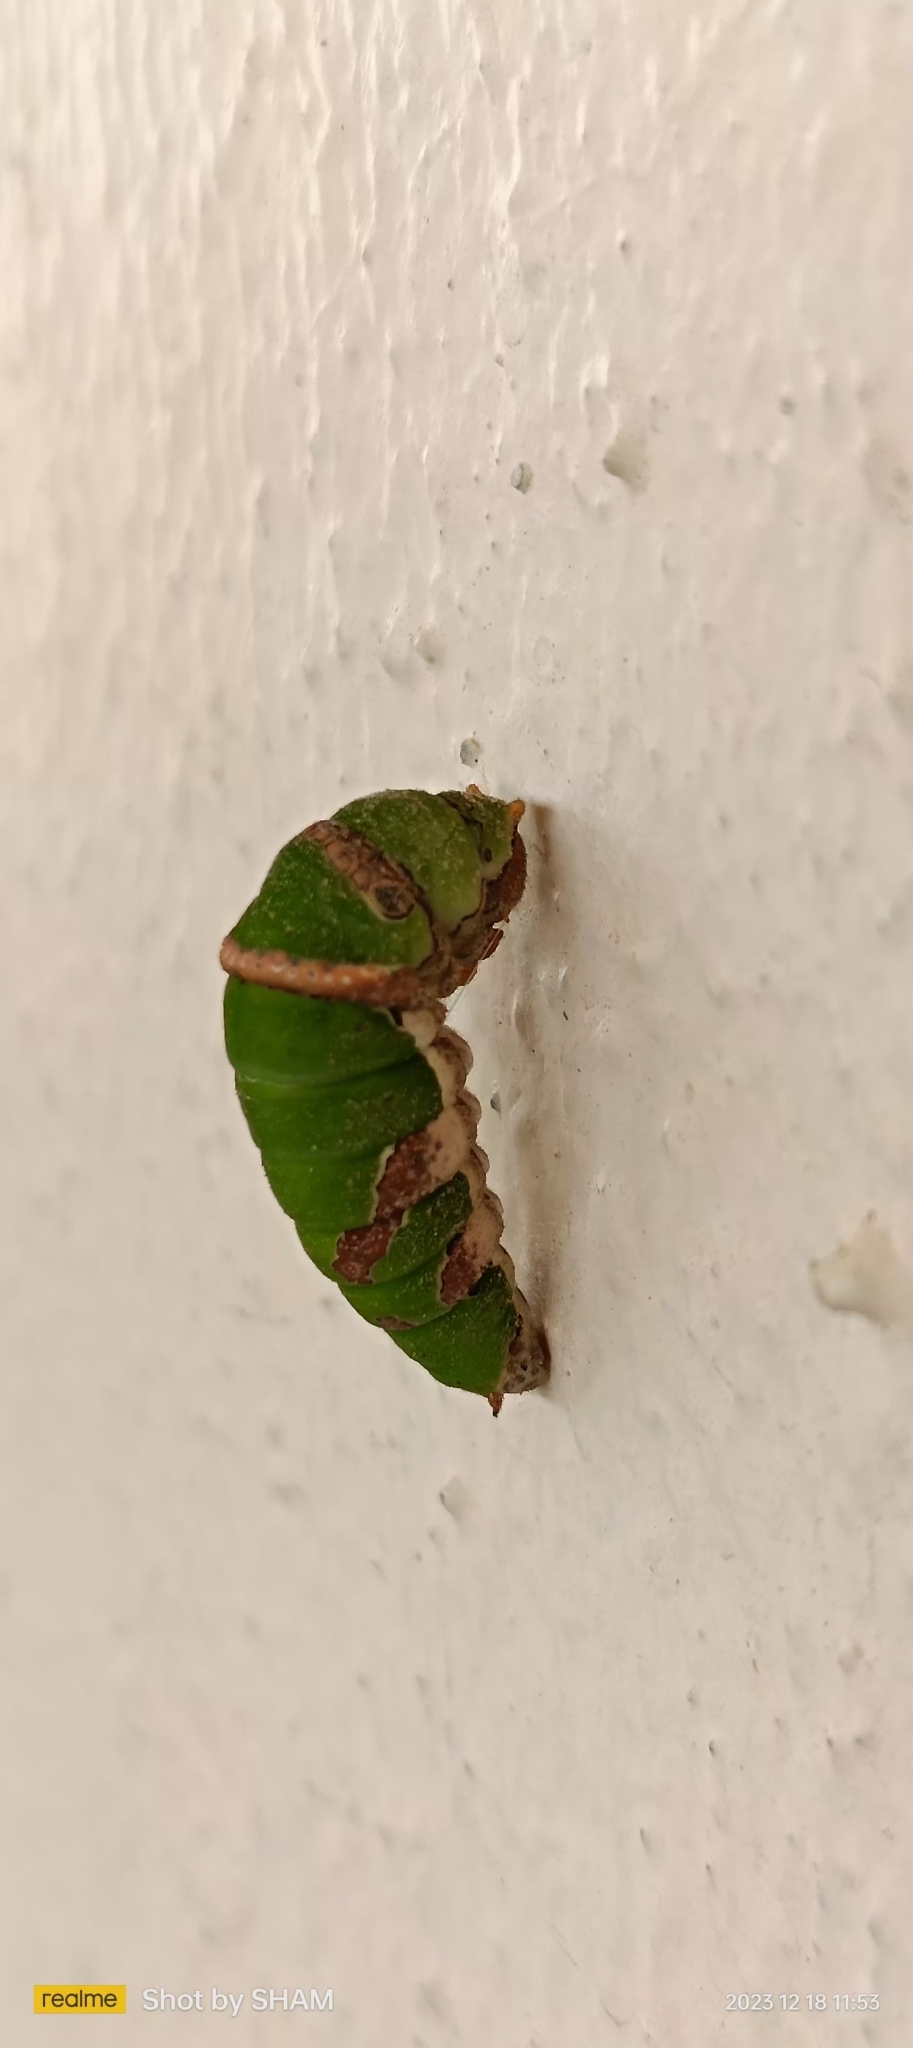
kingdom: Animalia
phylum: Arthropoda
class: Insecta
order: Lepidoptera
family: Papilionidae
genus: Papilio
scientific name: Papilio polytes
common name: Common mormon
